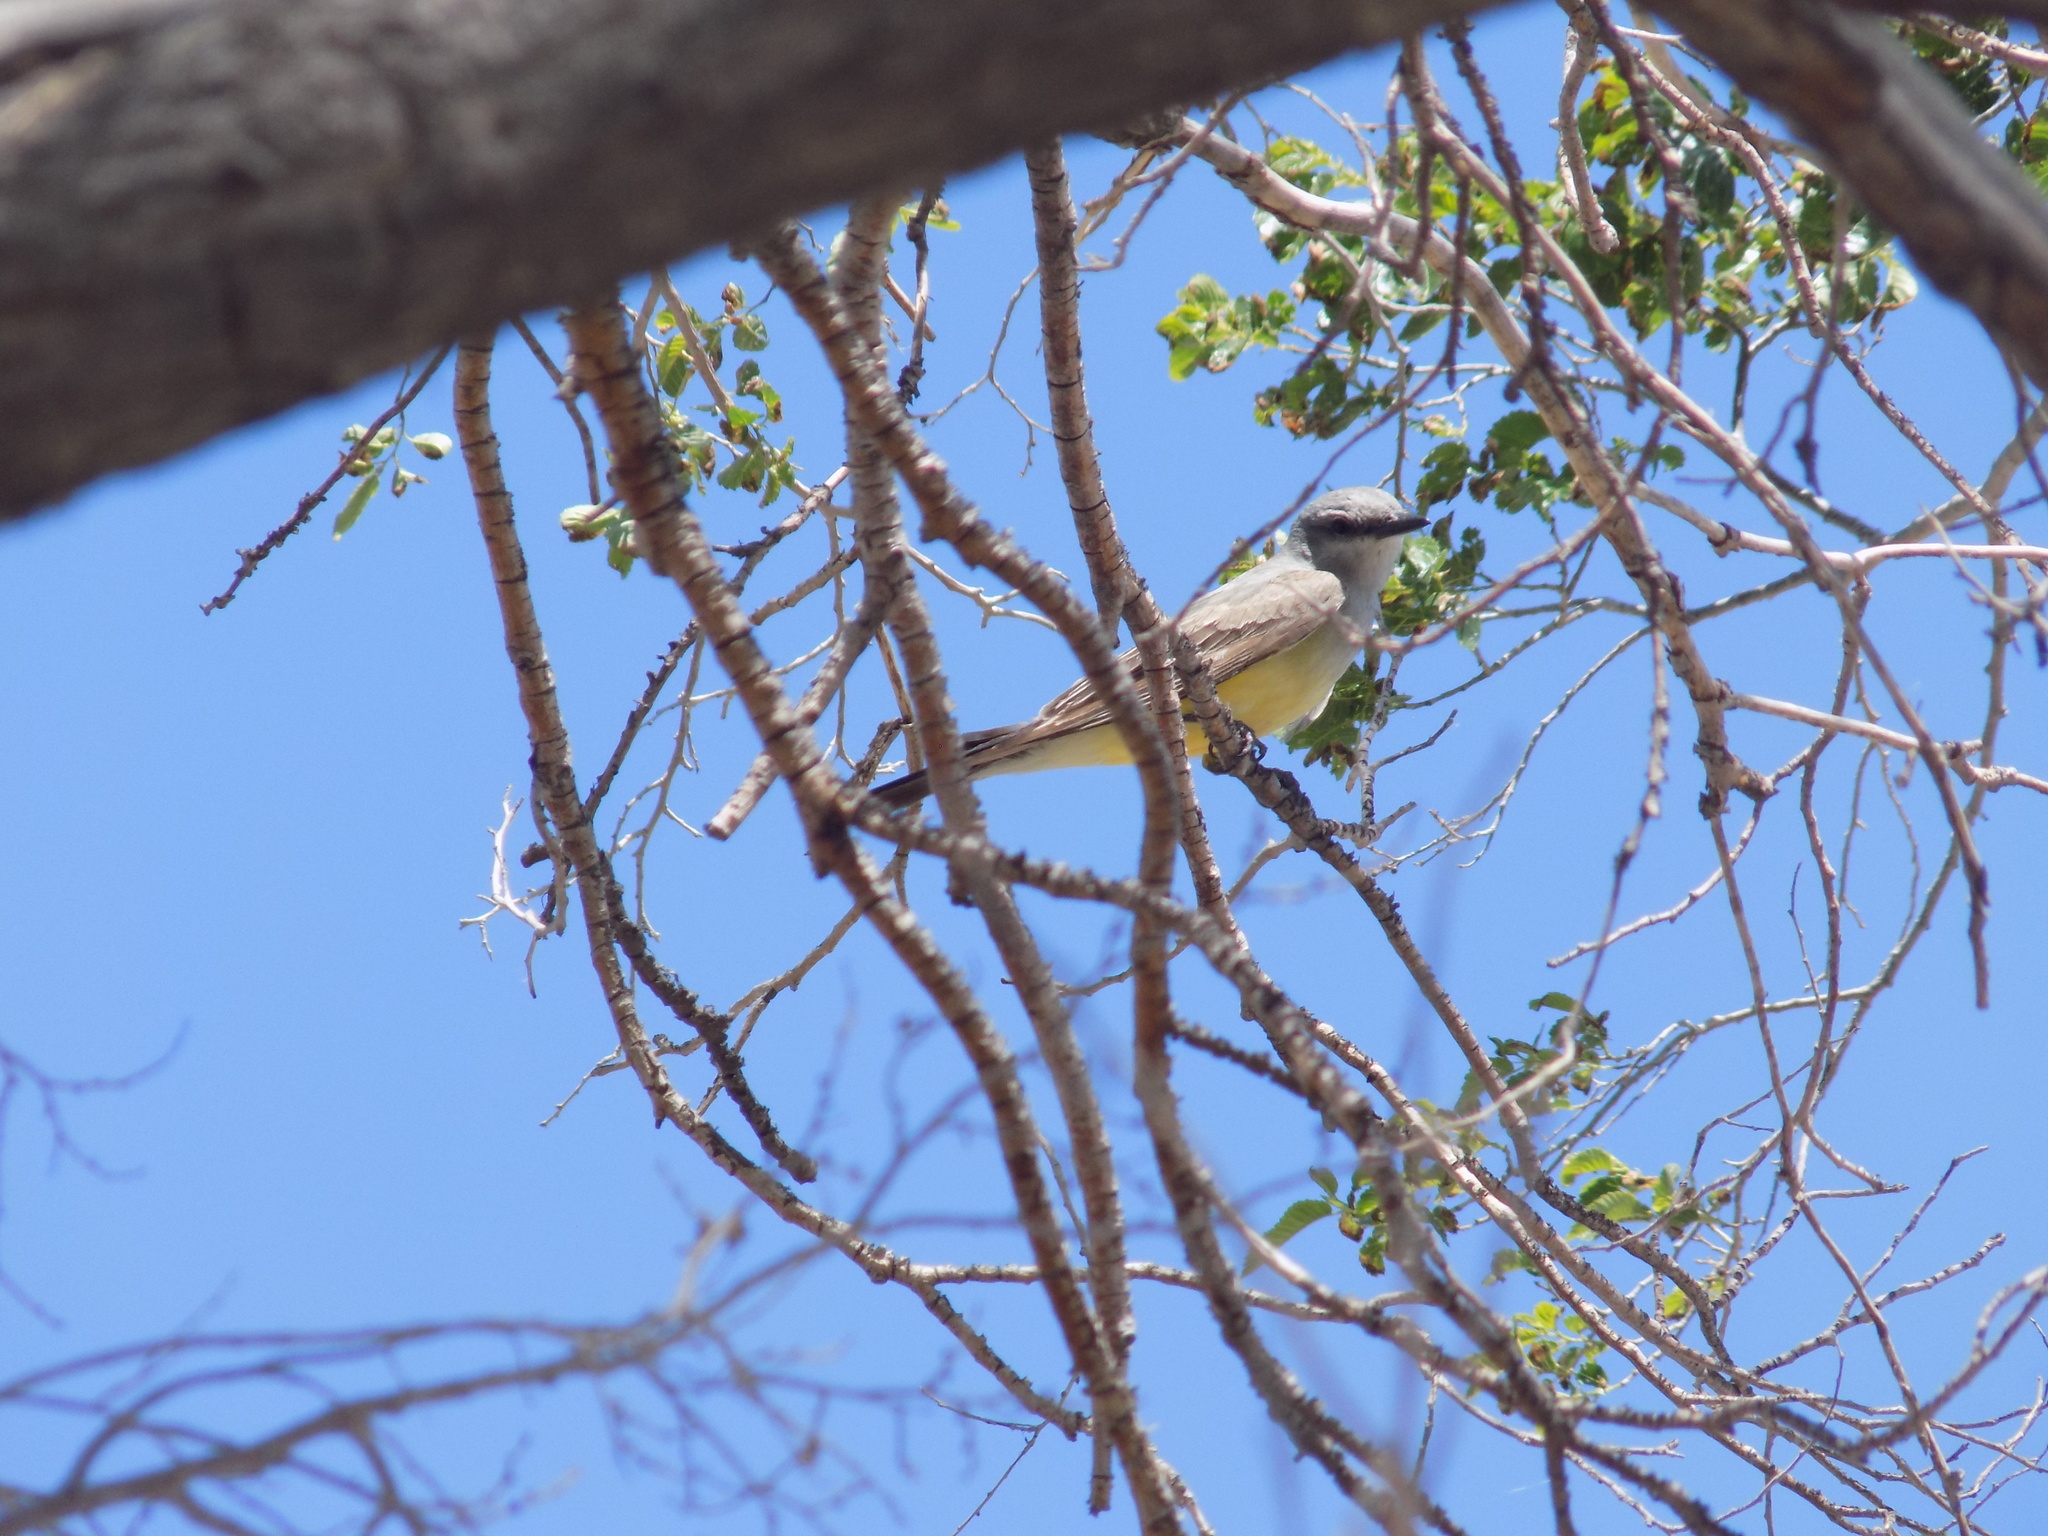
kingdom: Animalia
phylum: Chordata
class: Aves
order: Passeriformes
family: Tyrannidae
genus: Tyrannus
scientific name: Tyrannus verticalis
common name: Western kingbird
